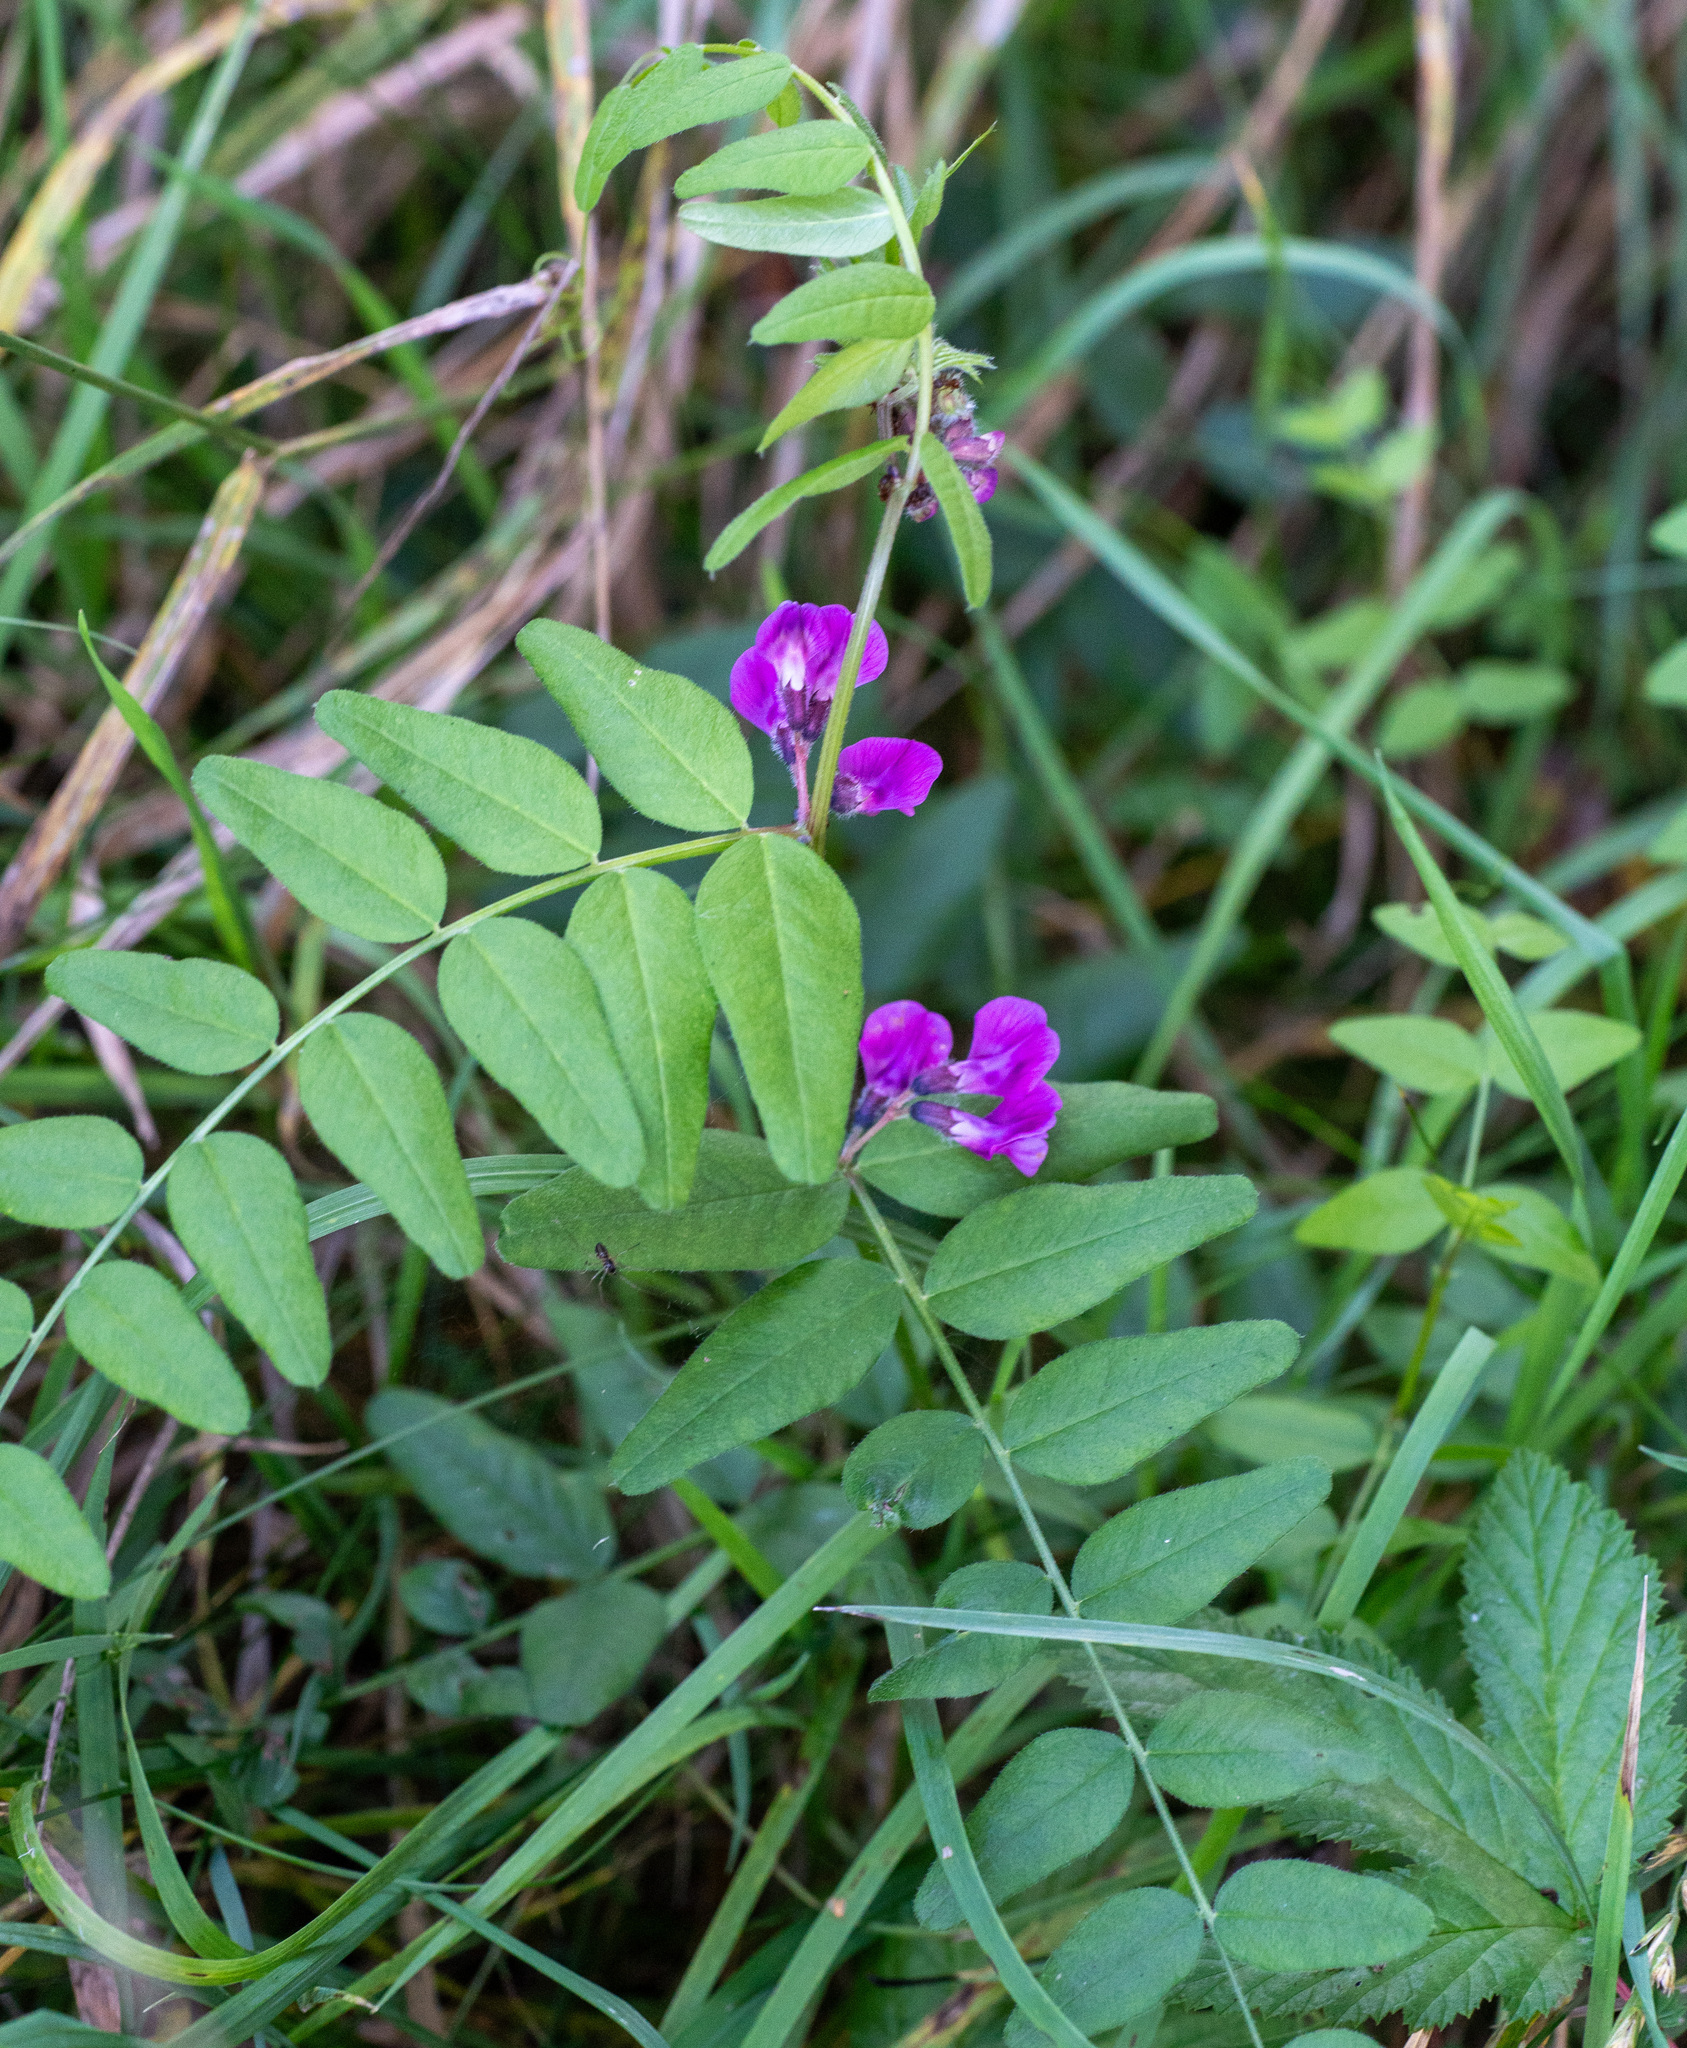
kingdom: Plantae
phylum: Tracheophyta
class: Magnoliopsida
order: Fabales
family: Fabaceae
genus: Vicia
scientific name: Vicia sepium
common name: Bush vetch
